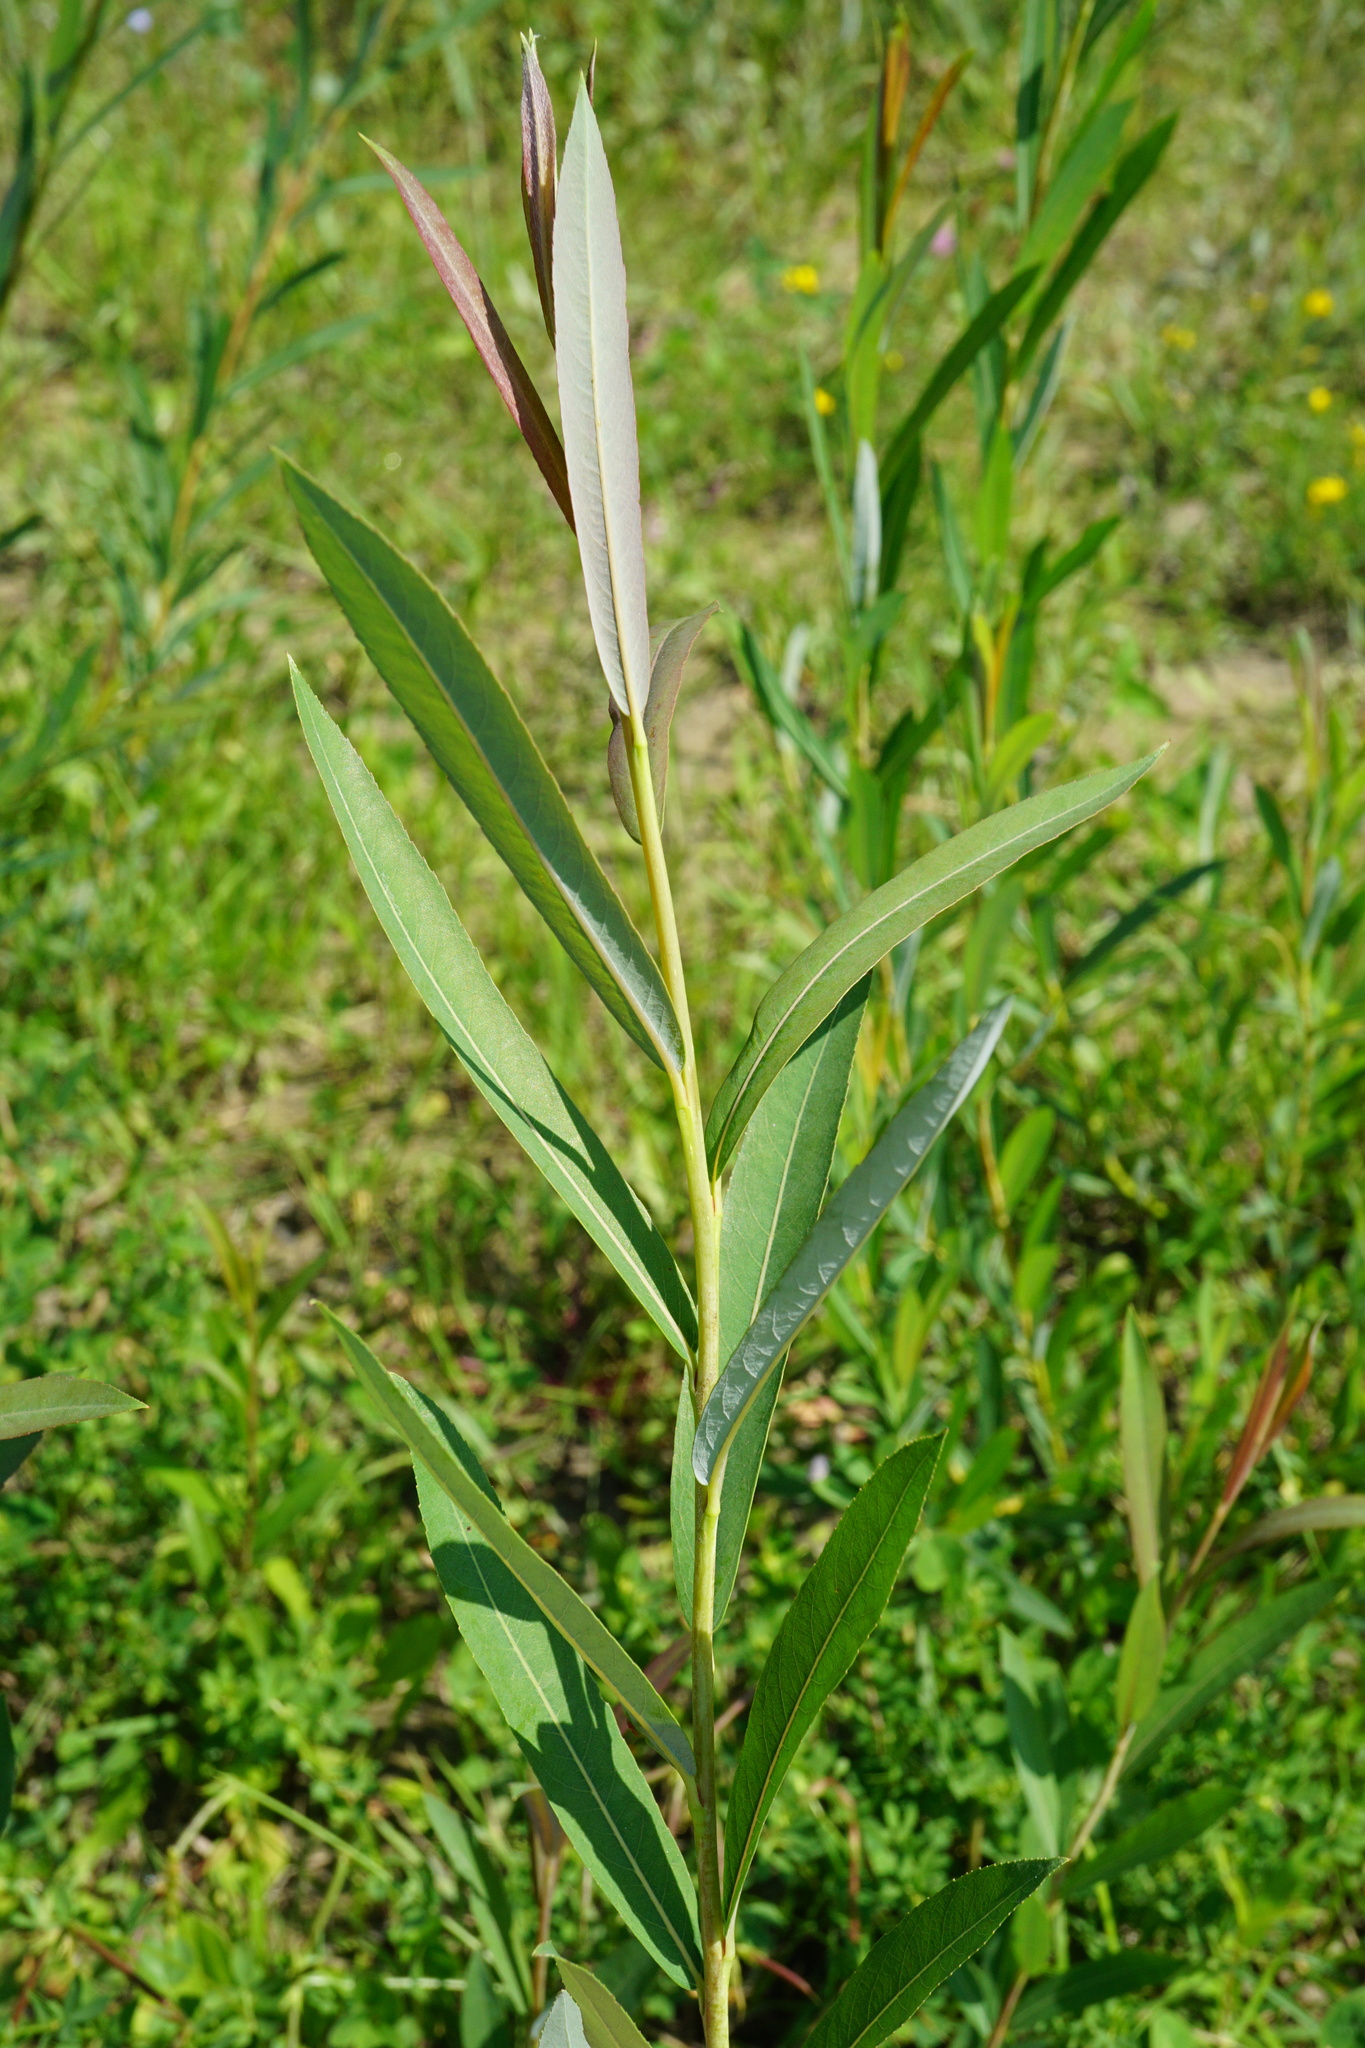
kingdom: Plantae
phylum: Tracheophyta
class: Magnoliopsida
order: Malpighiales
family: Salicaceae
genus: Salix
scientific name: Salix purpurea
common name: Purple willow
